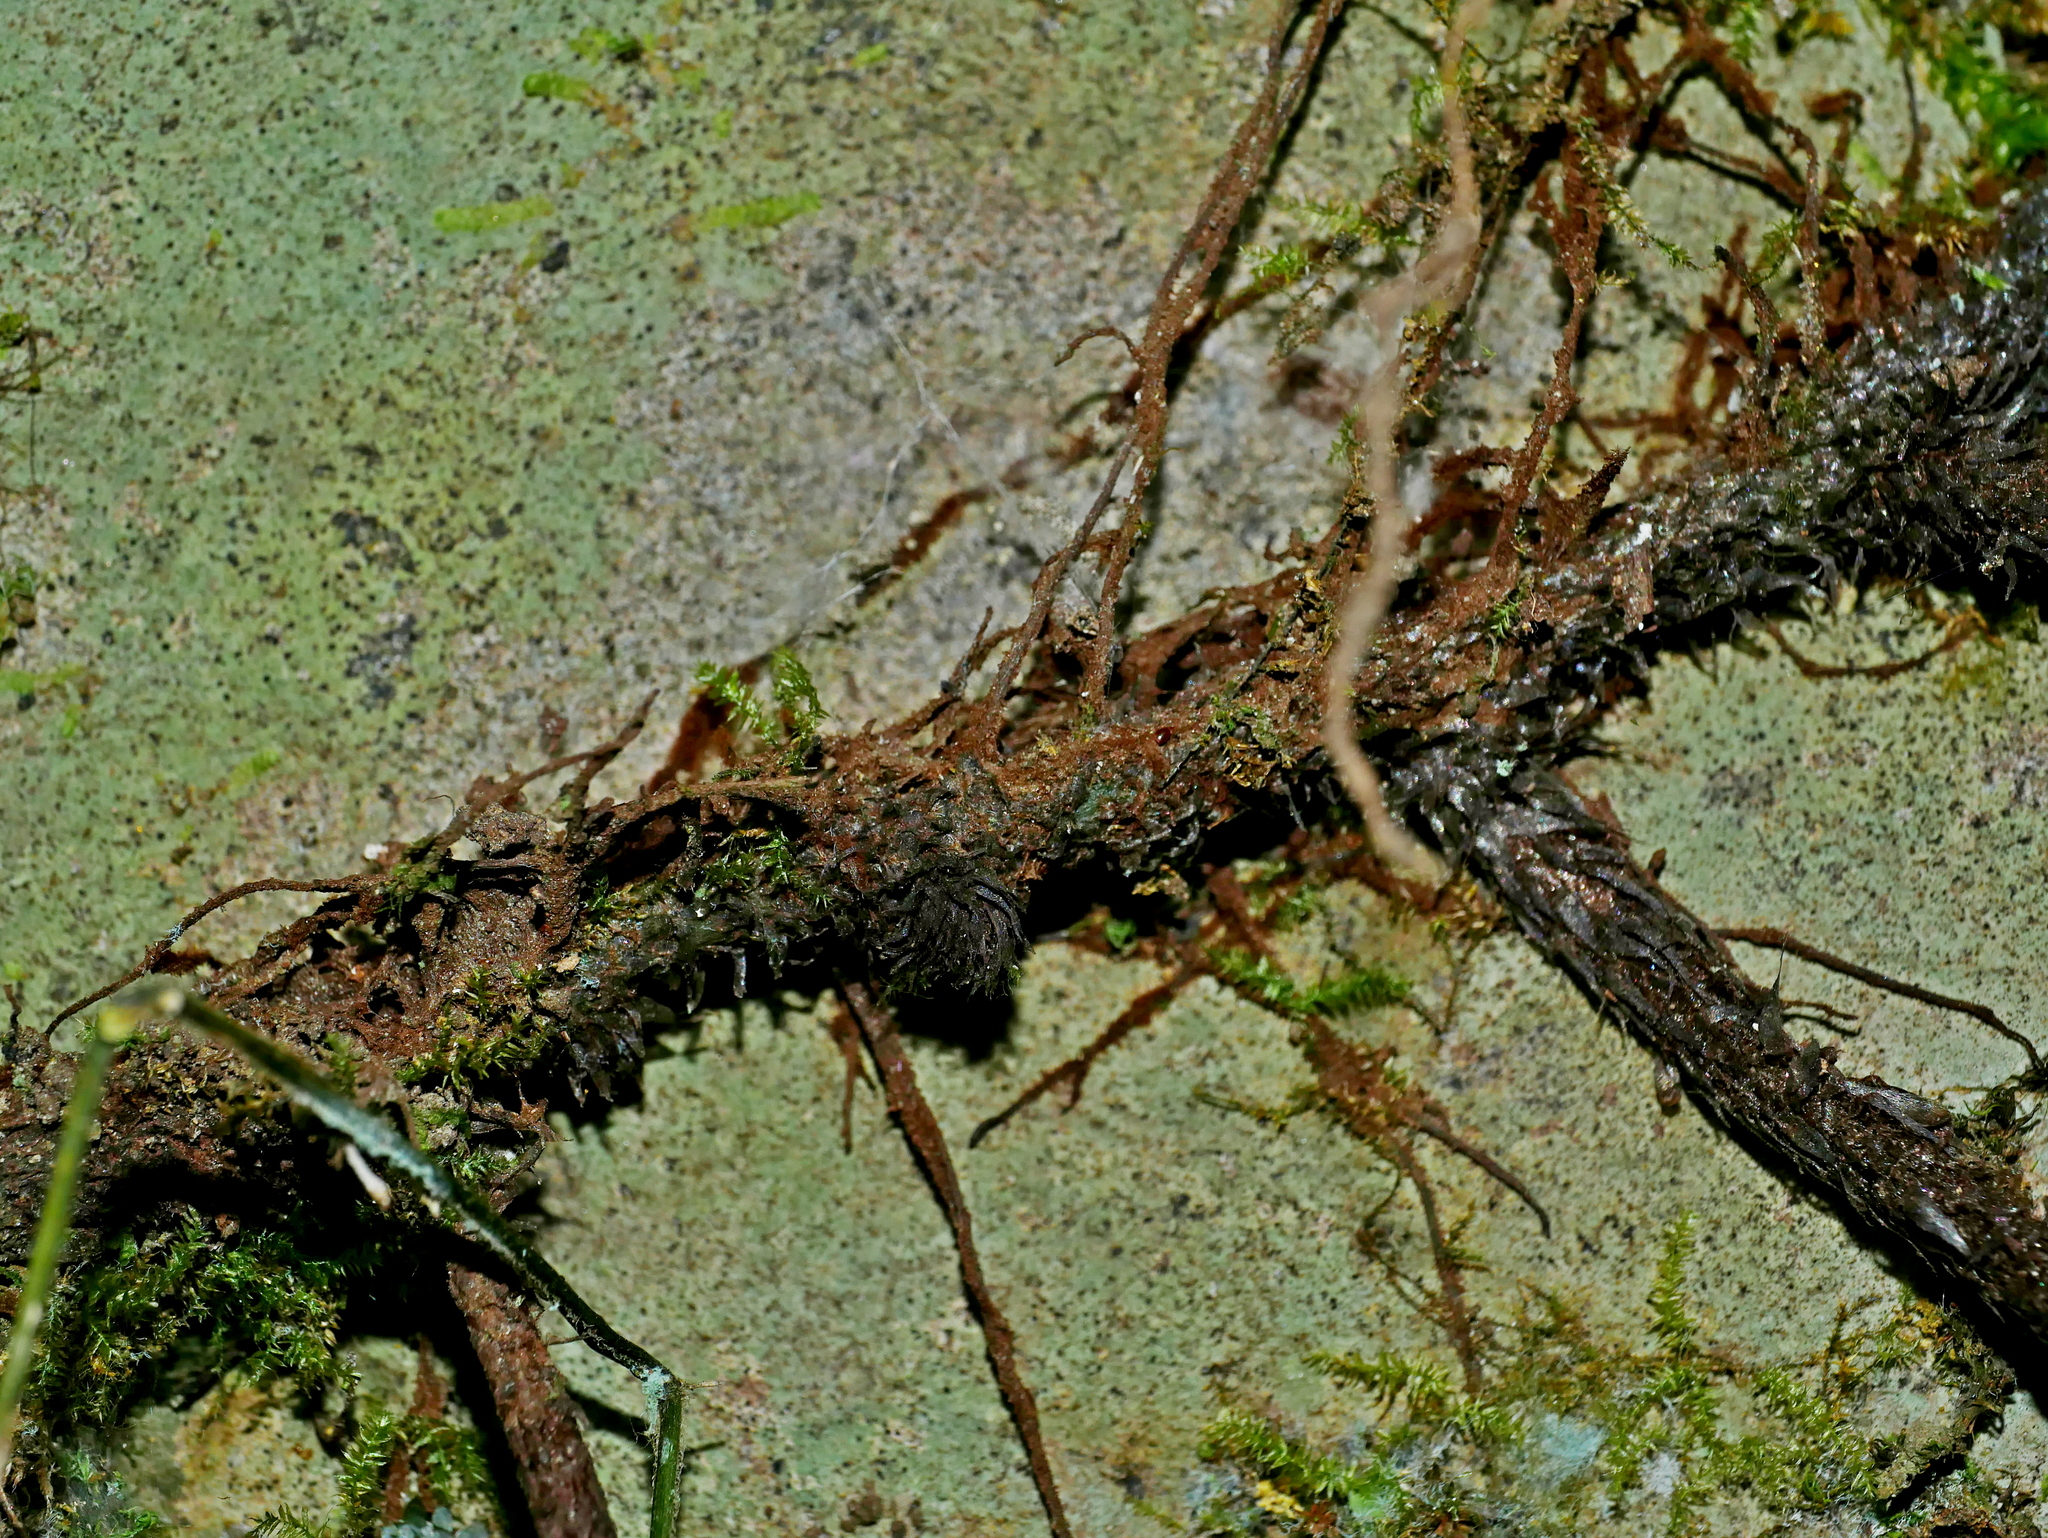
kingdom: Plantae
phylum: Tracheophyta
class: Polypodiopsida
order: Polypodiales
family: Polypodiaceae
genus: Lepisorus
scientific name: Lepisorus ensatus
